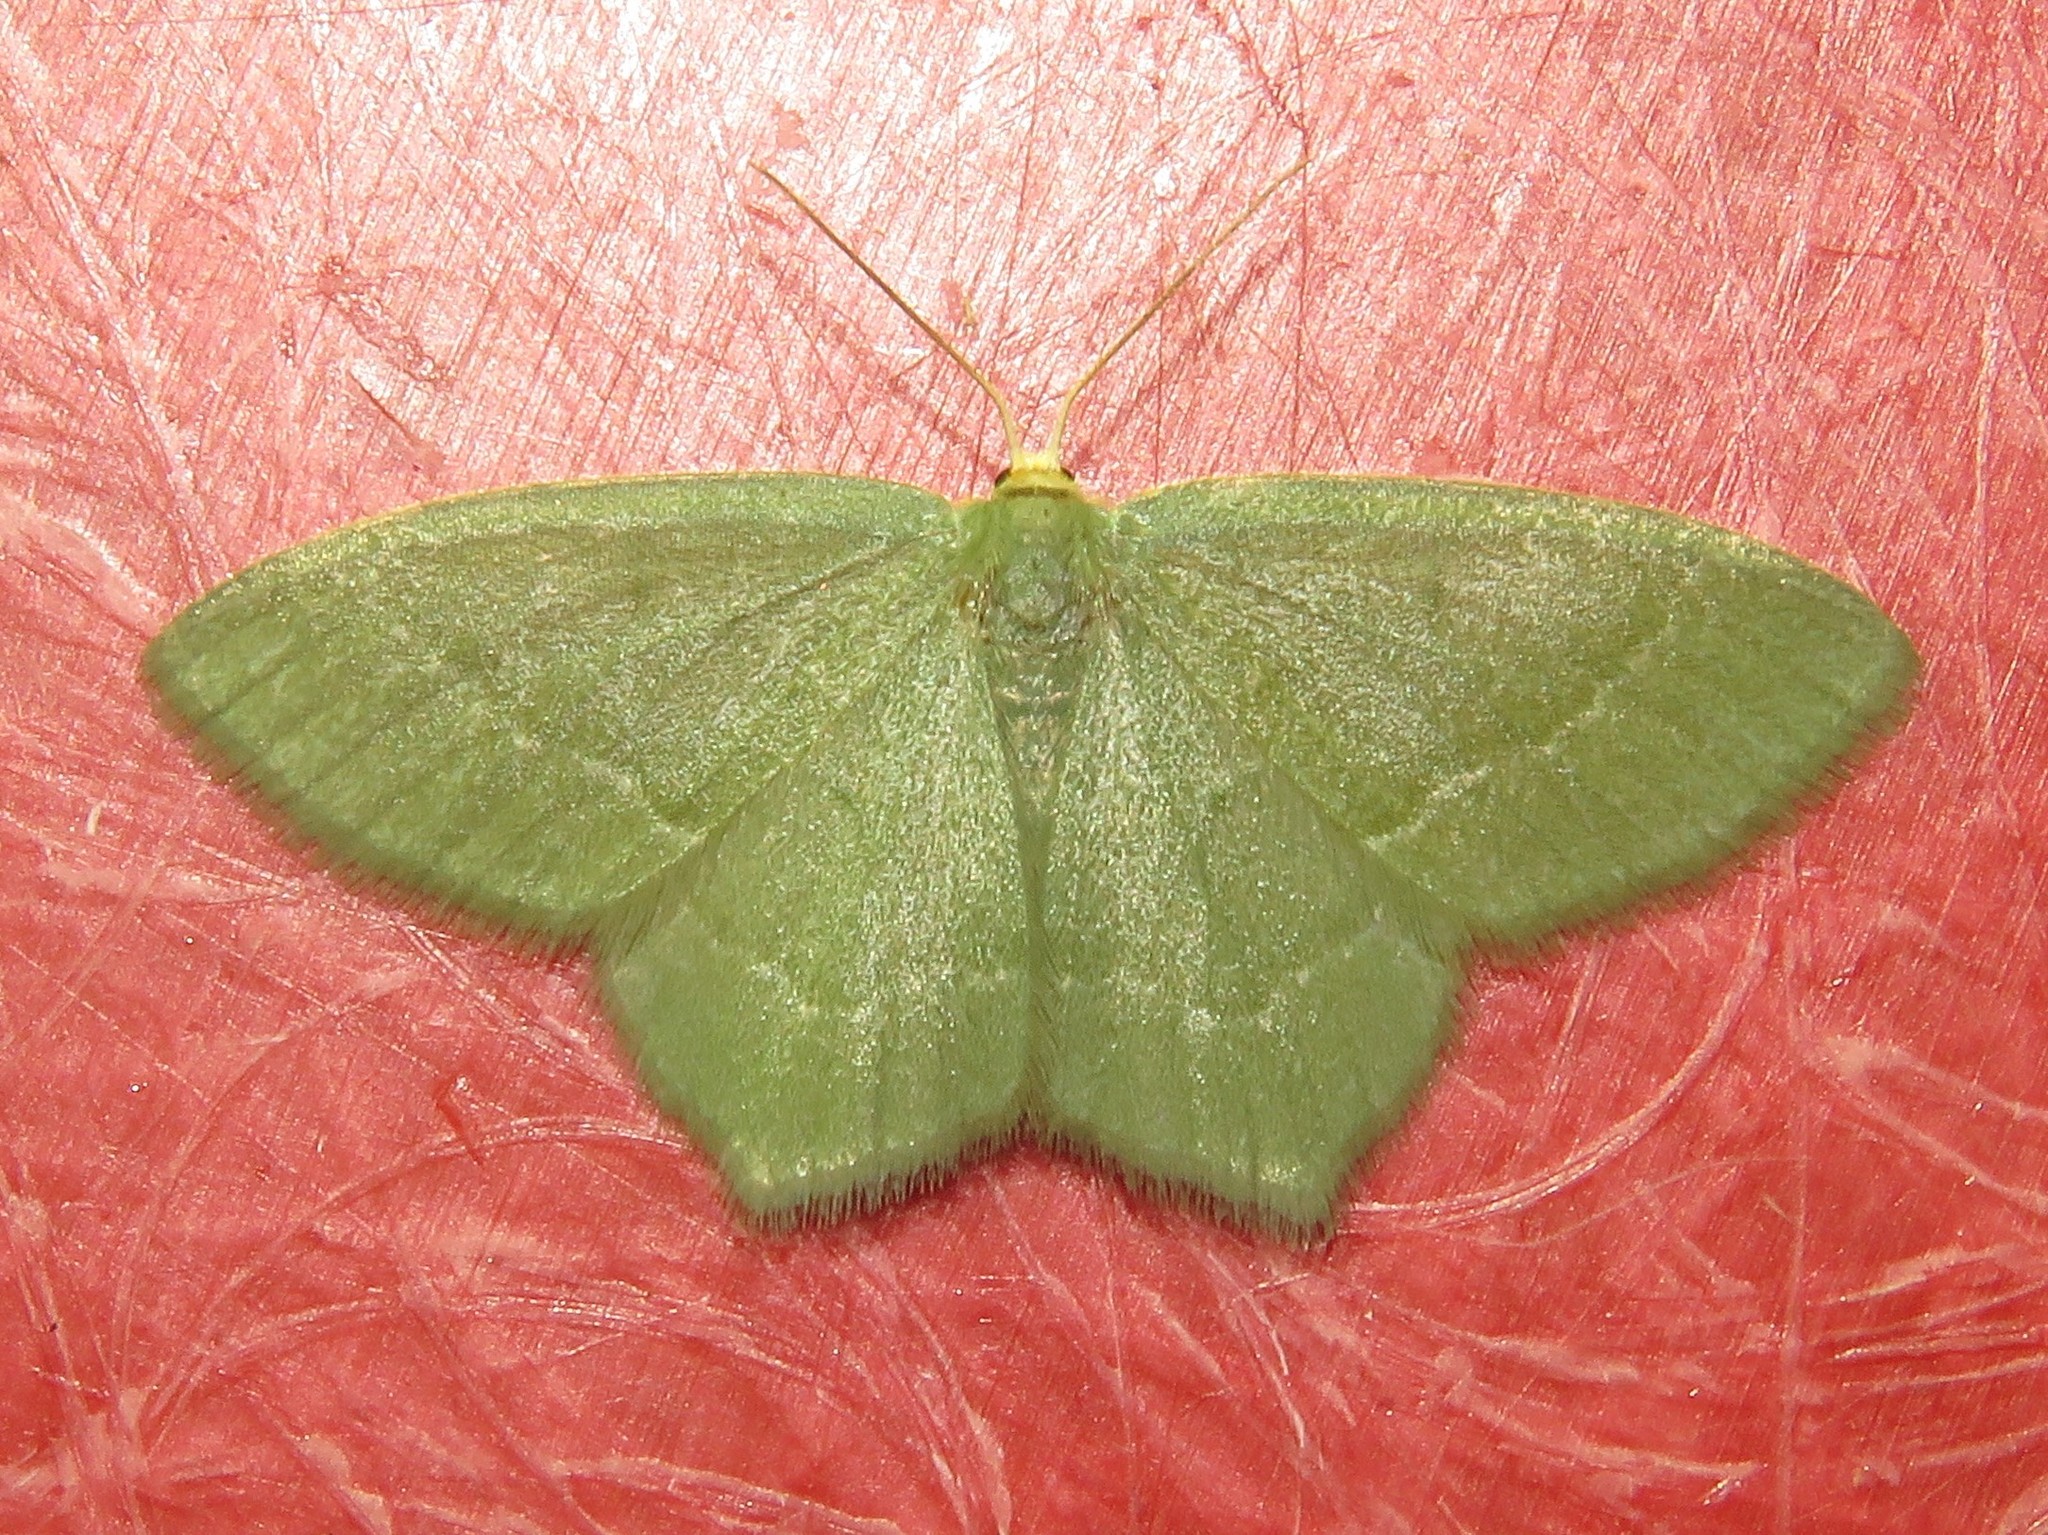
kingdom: Animalia
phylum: Arthropoda
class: Insecta
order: Lepidoptera
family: Geometridae
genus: Thalera
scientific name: Thalera pistasciaria
